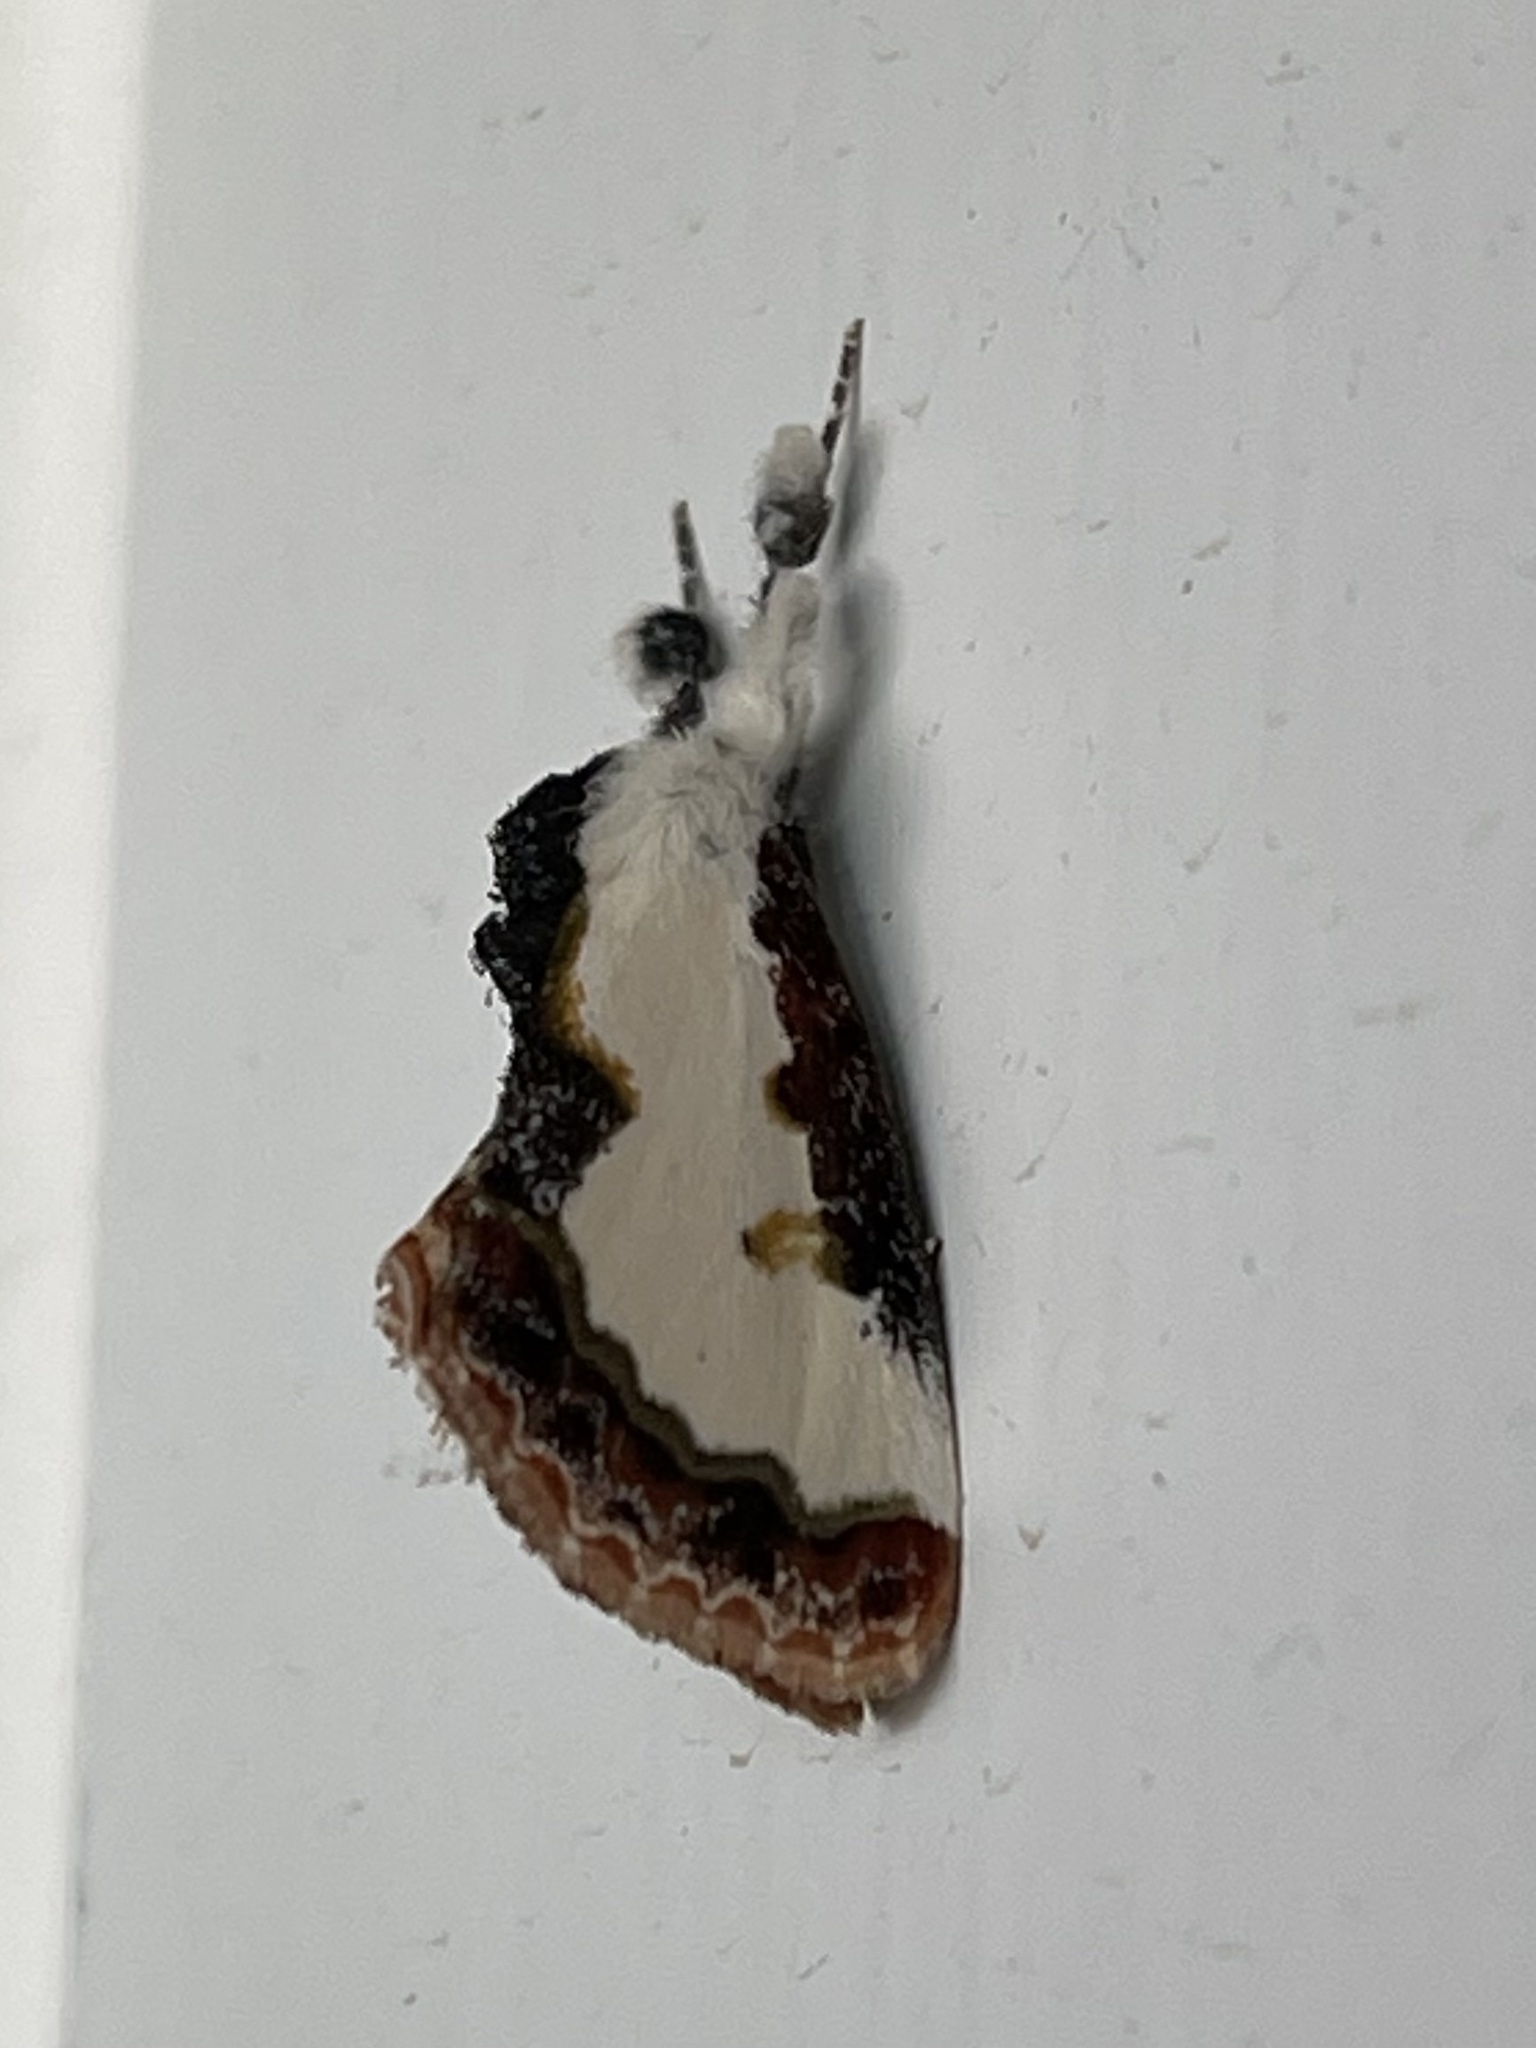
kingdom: Animalia
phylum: Arthropoda
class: Insecta
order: Lepidoptera
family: Noctuidae
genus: Eudryas
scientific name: Eudryas unio
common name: Pearly wood-nymph
